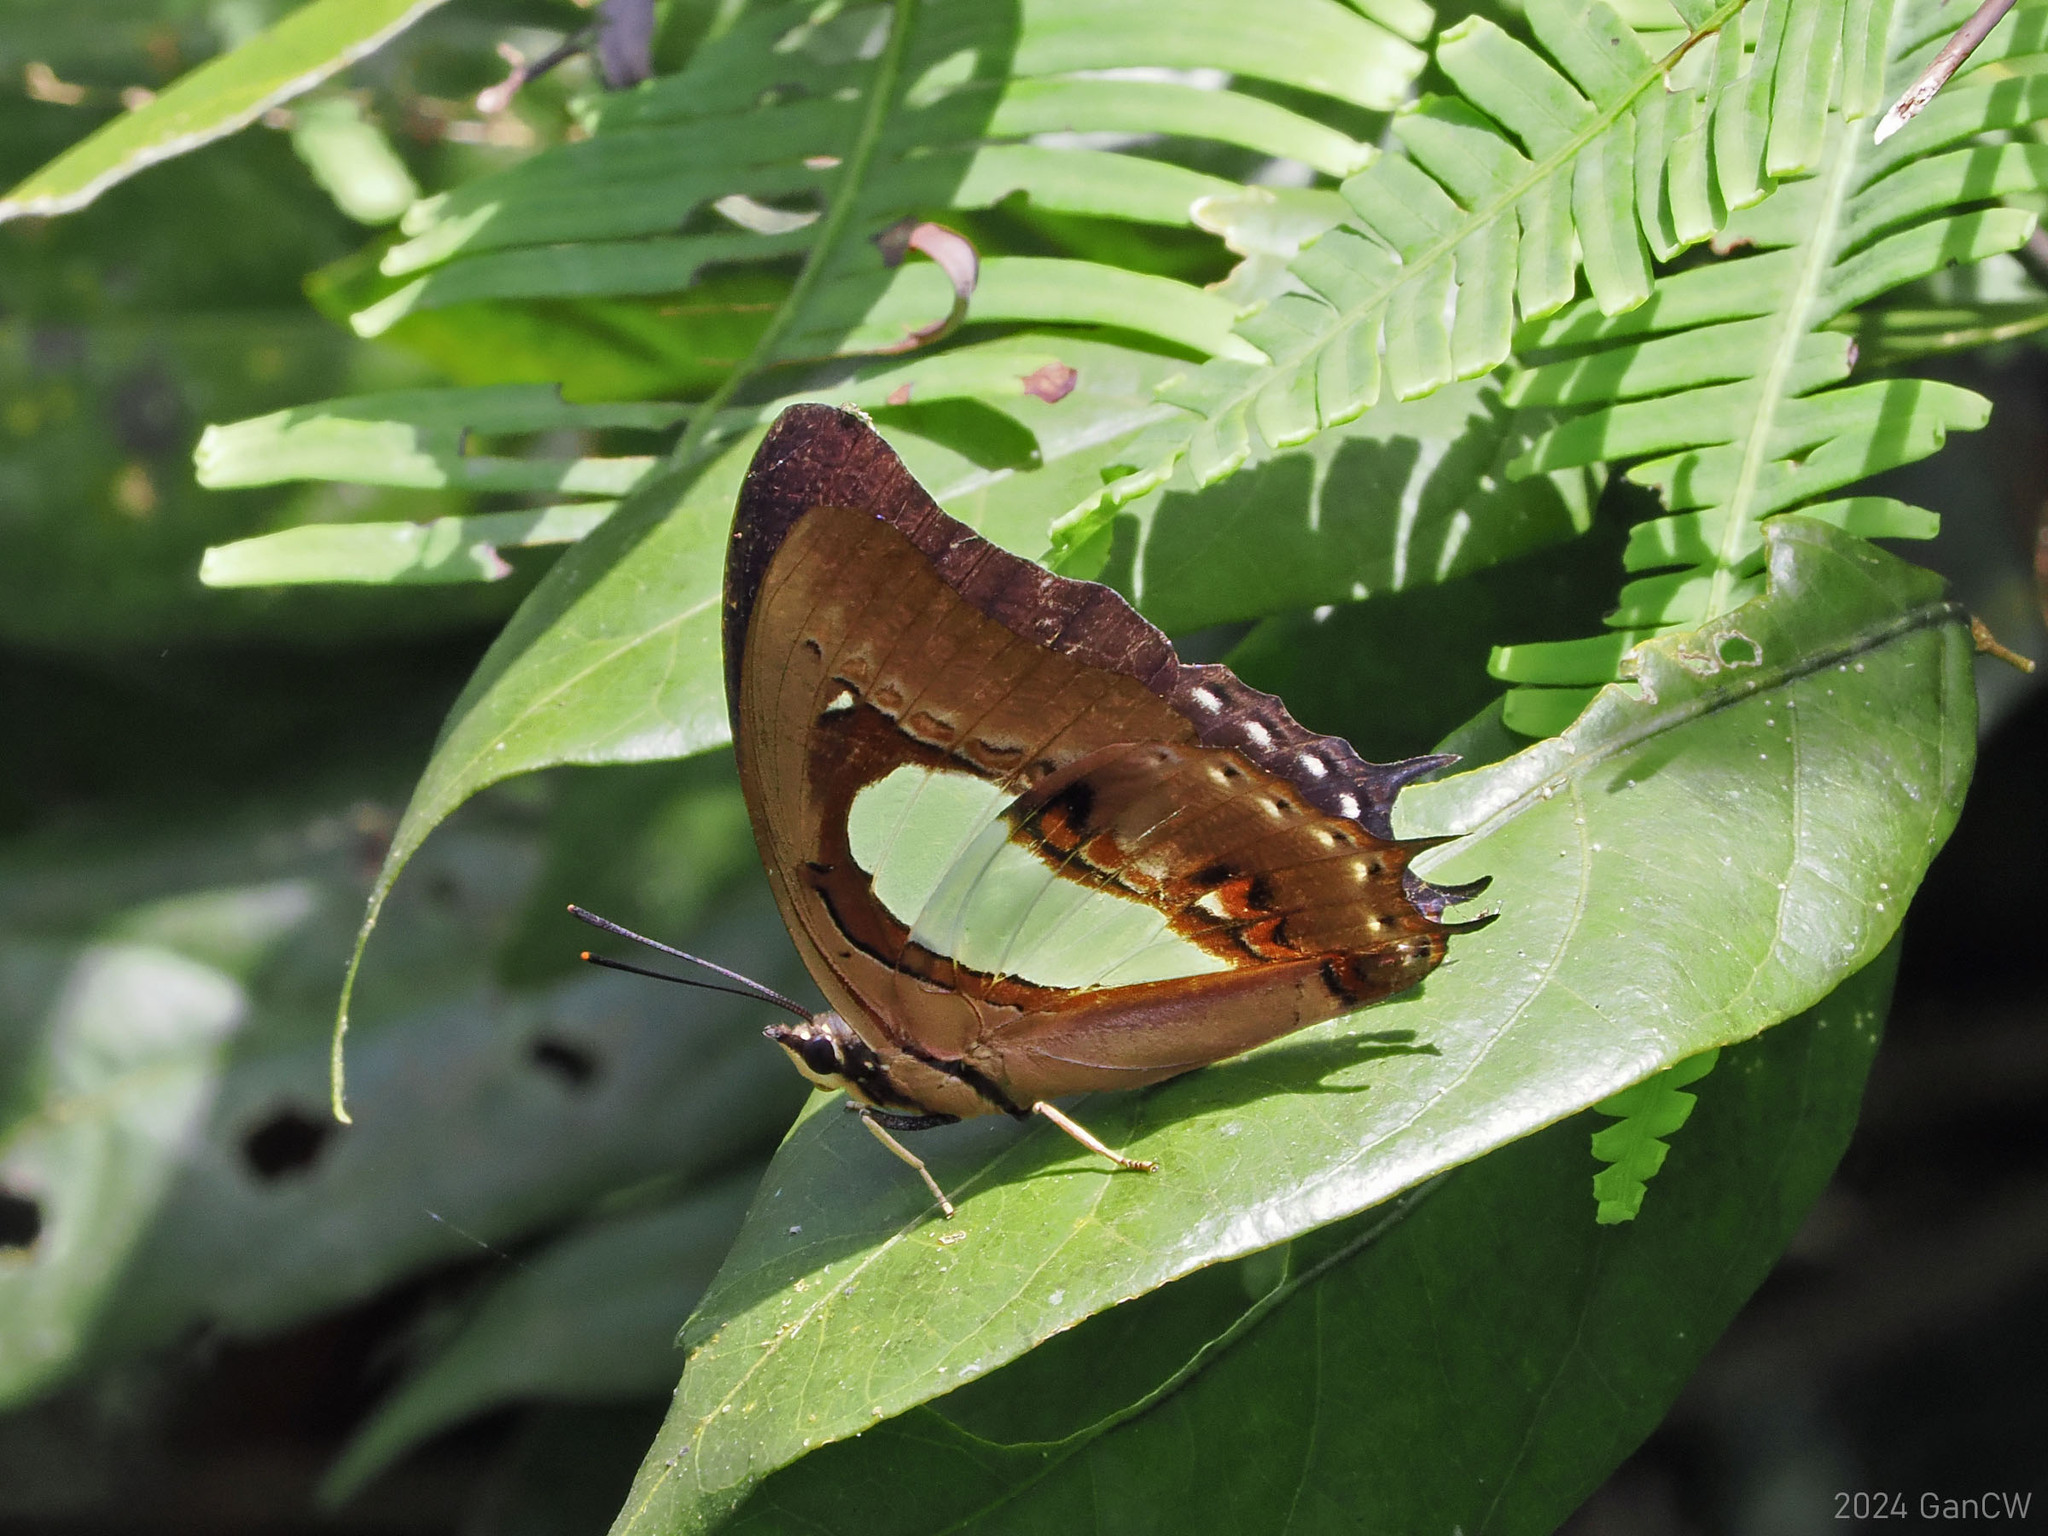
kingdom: Animalia
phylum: Arthropoda
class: Insecta
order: Lepidoptera
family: Nymphalidae
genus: Polyura
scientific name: Polyura hebe
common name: Plain nawab
